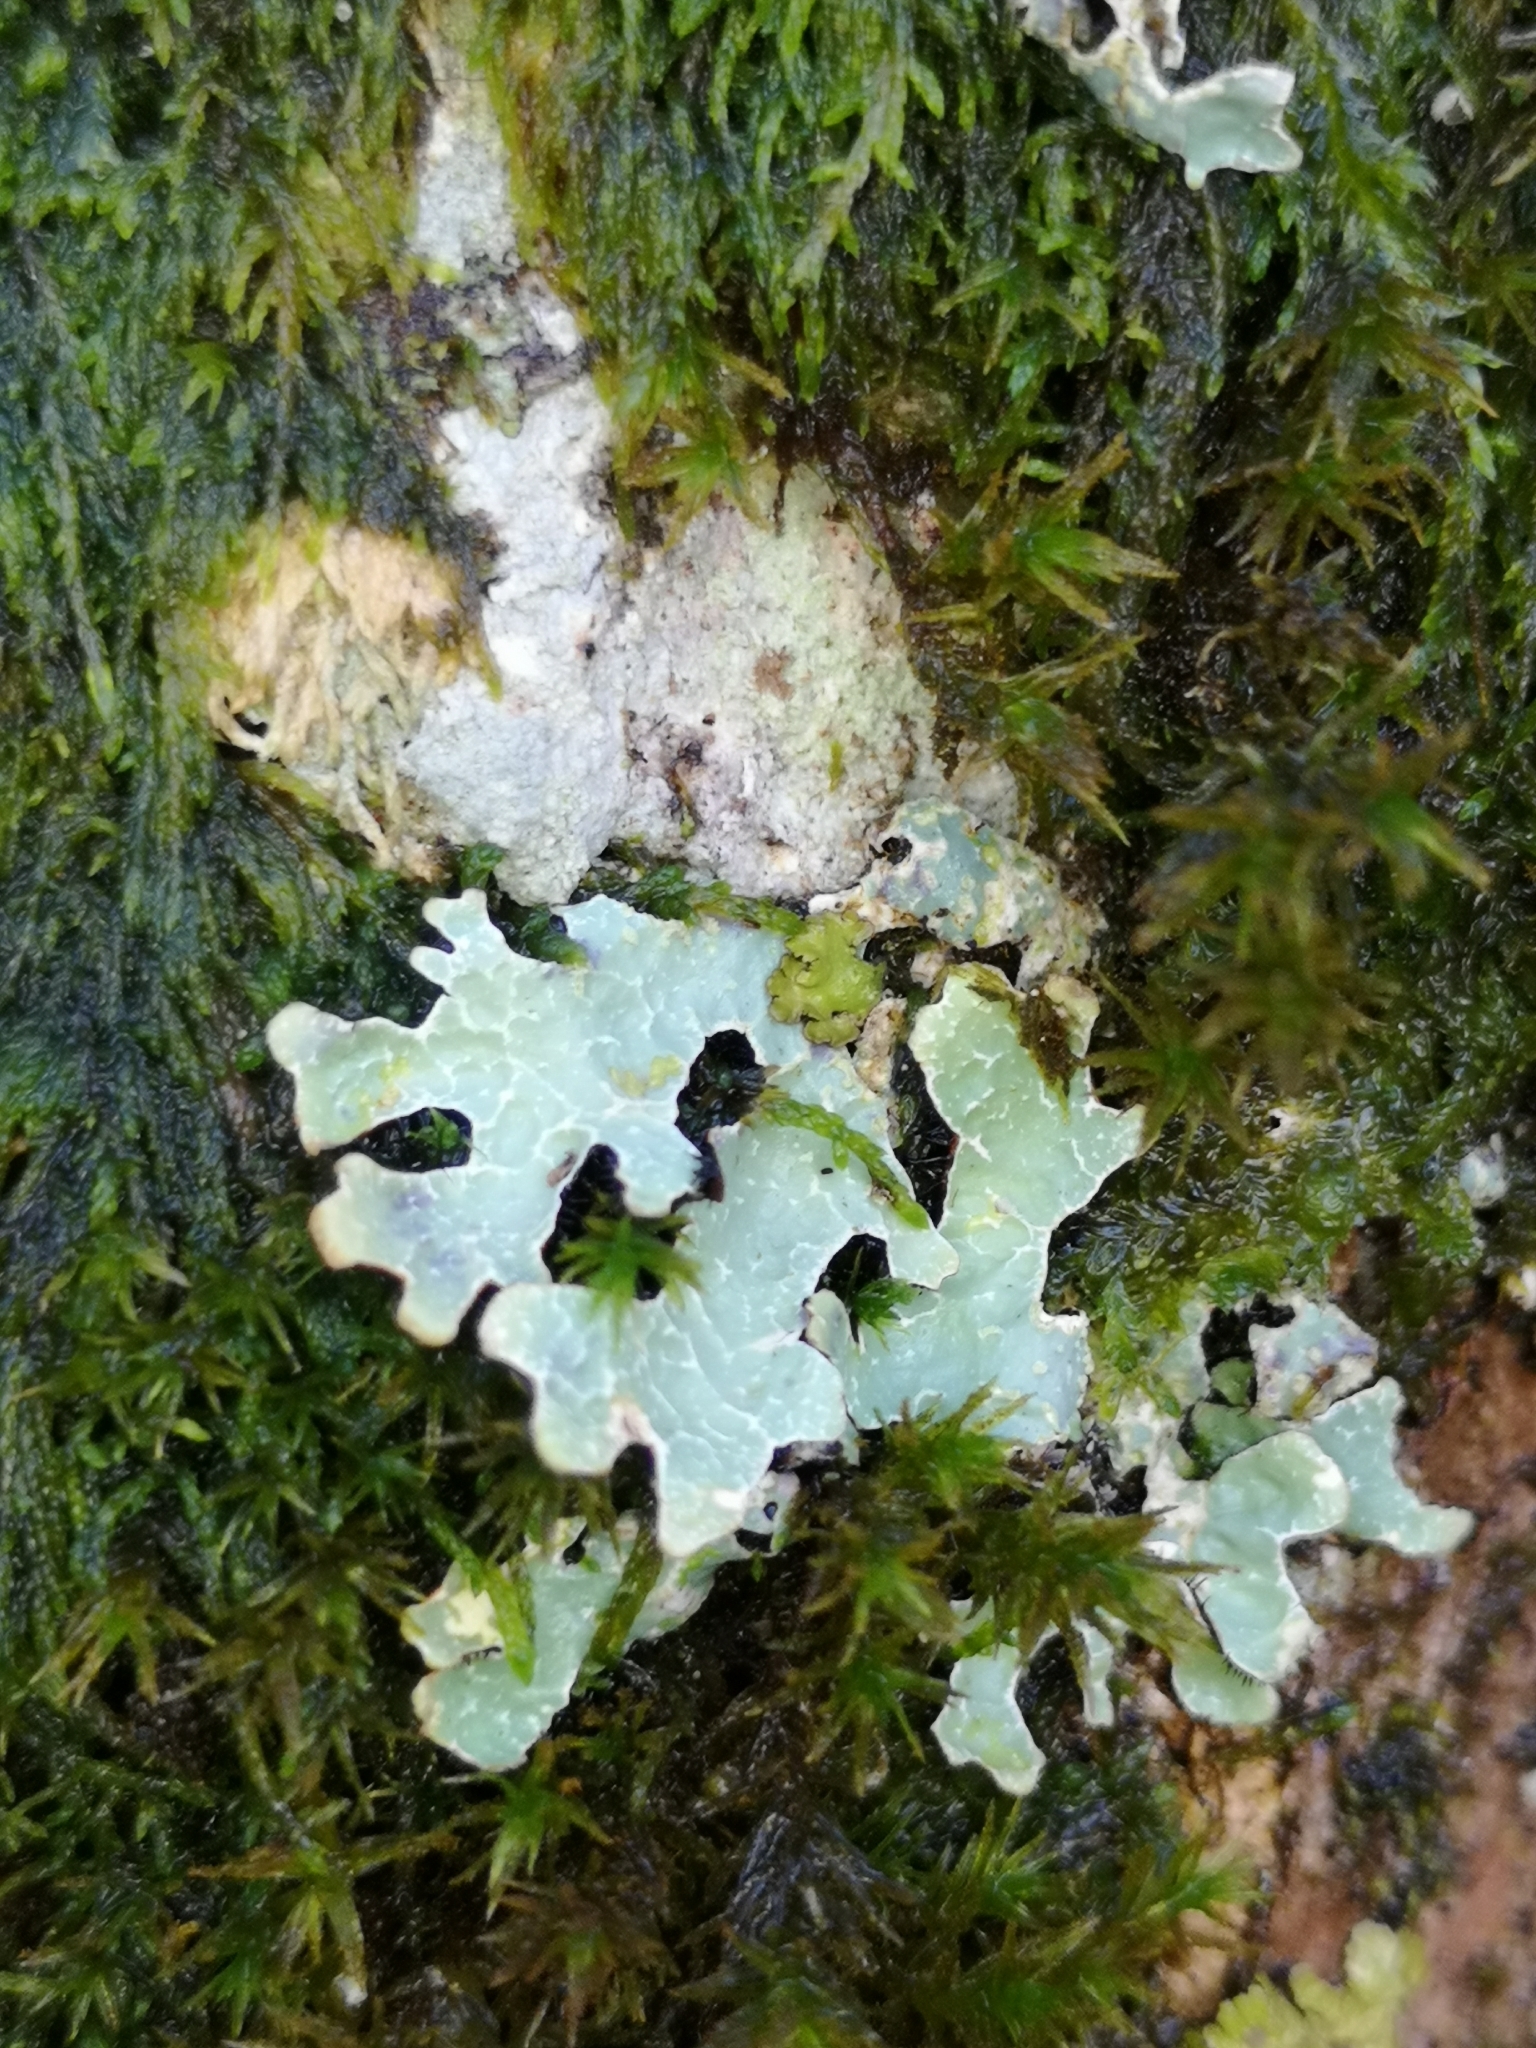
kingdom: Fungi
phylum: Ascomycota
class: Lecanoromycetes
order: Lecanorales
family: Parmeliaceae
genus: Parmelia
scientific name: Parmelia sulcata
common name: Netted shield lichen
